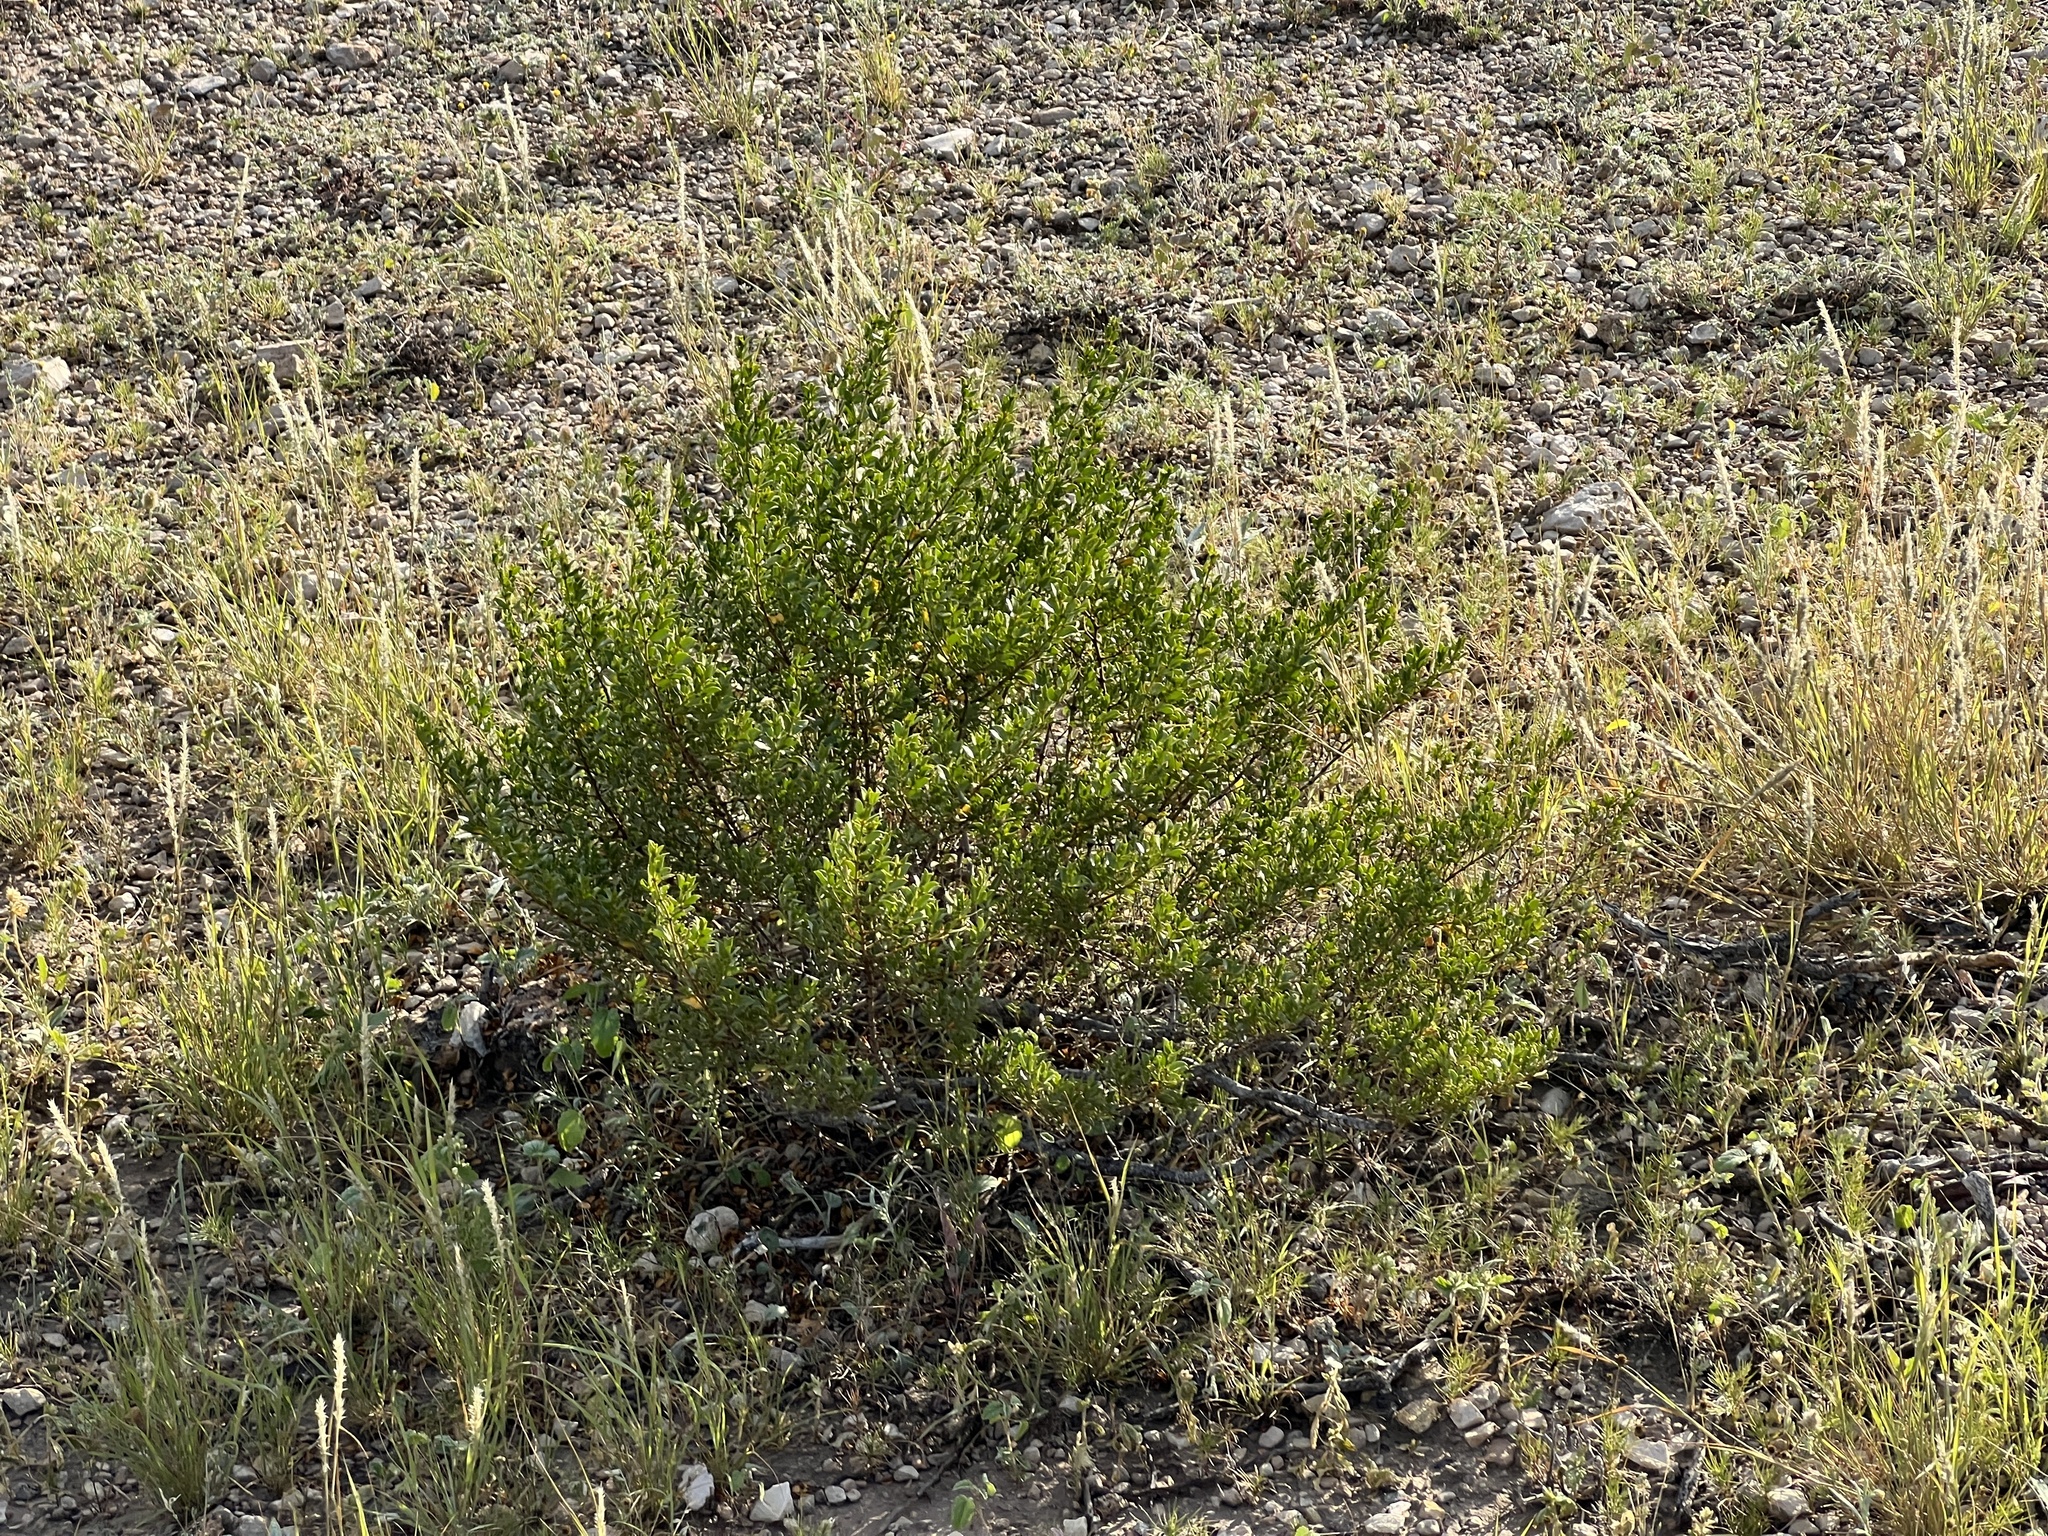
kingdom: Plantae
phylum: Tracheophyta
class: Magnoliopsida
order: Zygophyllales
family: Zygophyllaceae
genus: Larrea
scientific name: Larrea tridentata
